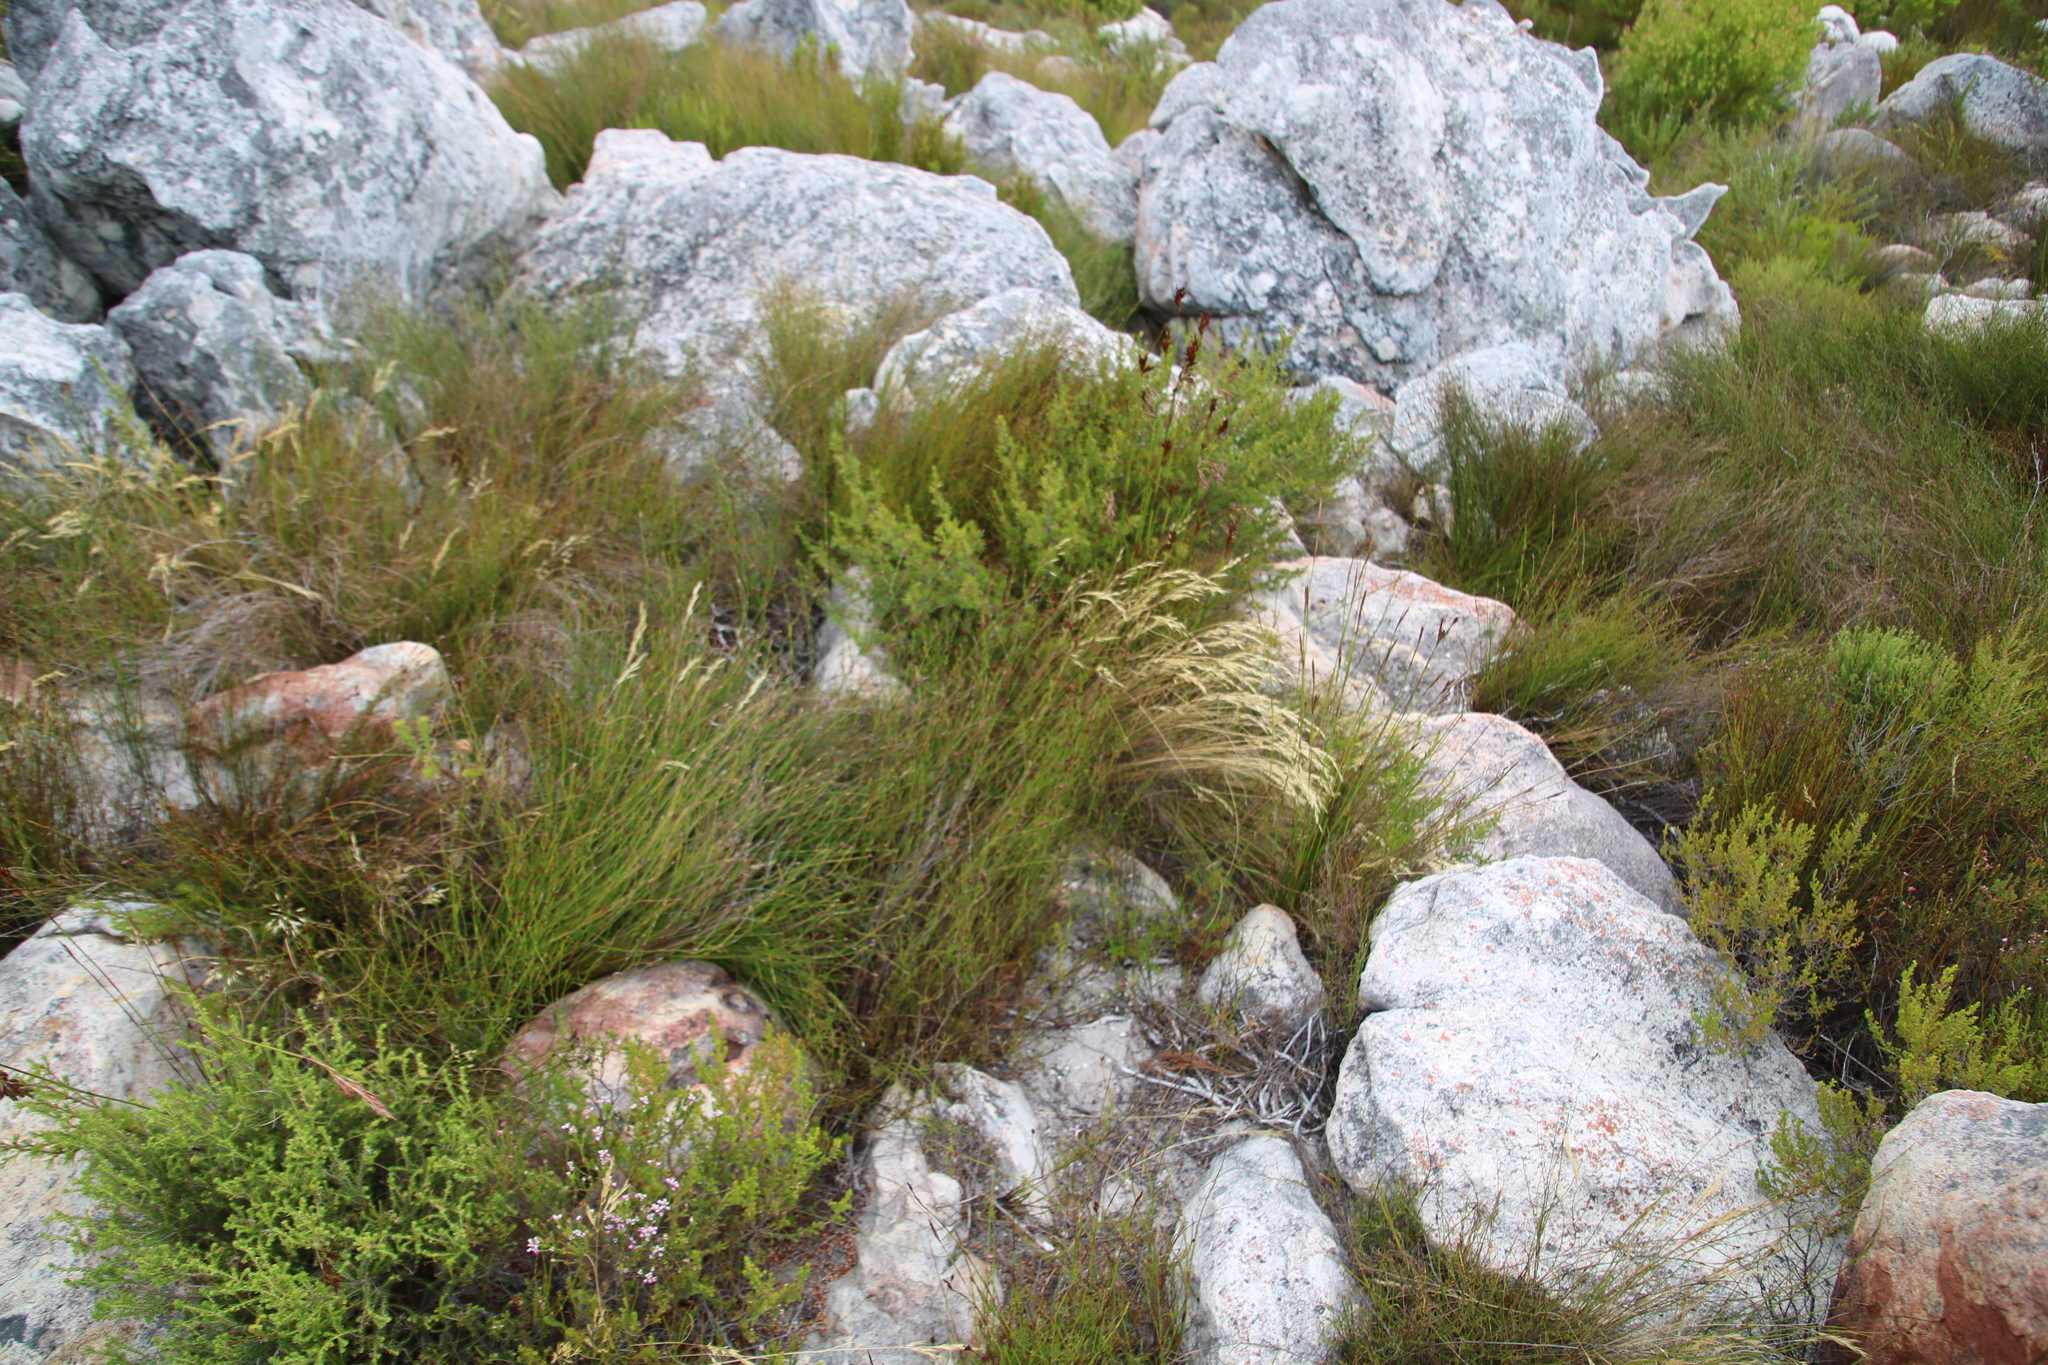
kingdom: Plantae
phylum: Tracheophyta
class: Liliopsida
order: Poales
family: Poaceae
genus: Pentameris
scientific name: Pentameris macrocalycina
